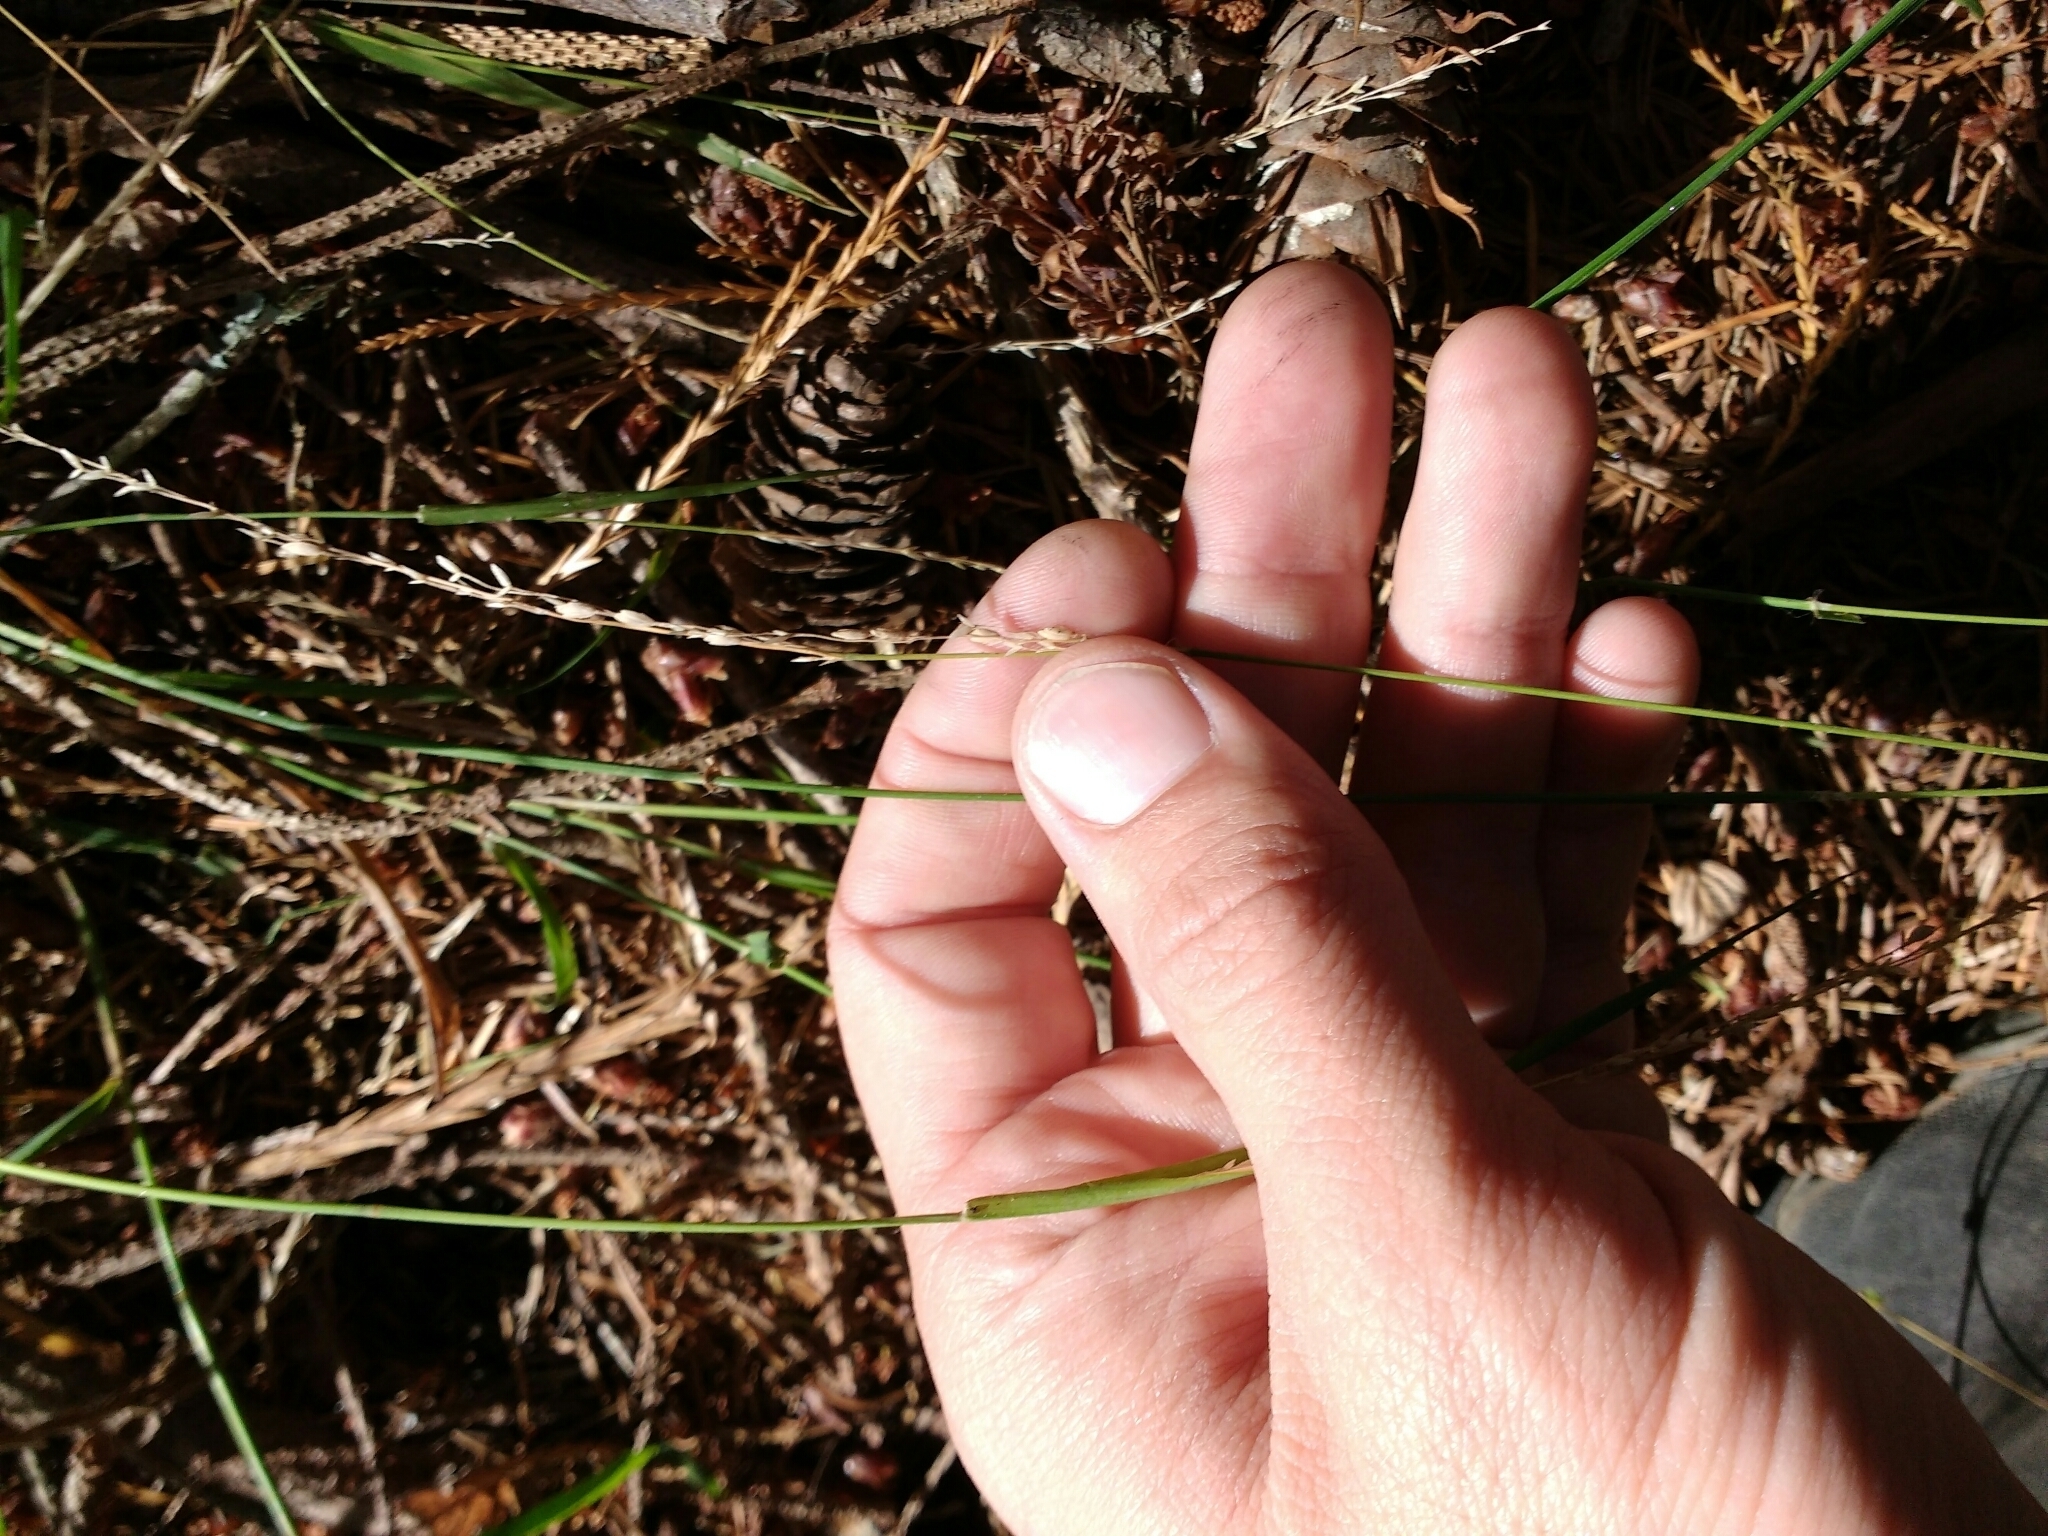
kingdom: Plantae
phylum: Tracheophyta
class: Liliopsida
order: Poales
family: Poaceae
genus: Ehrharta
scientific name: Ehrharta erecta
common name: Panic veldtgrass
